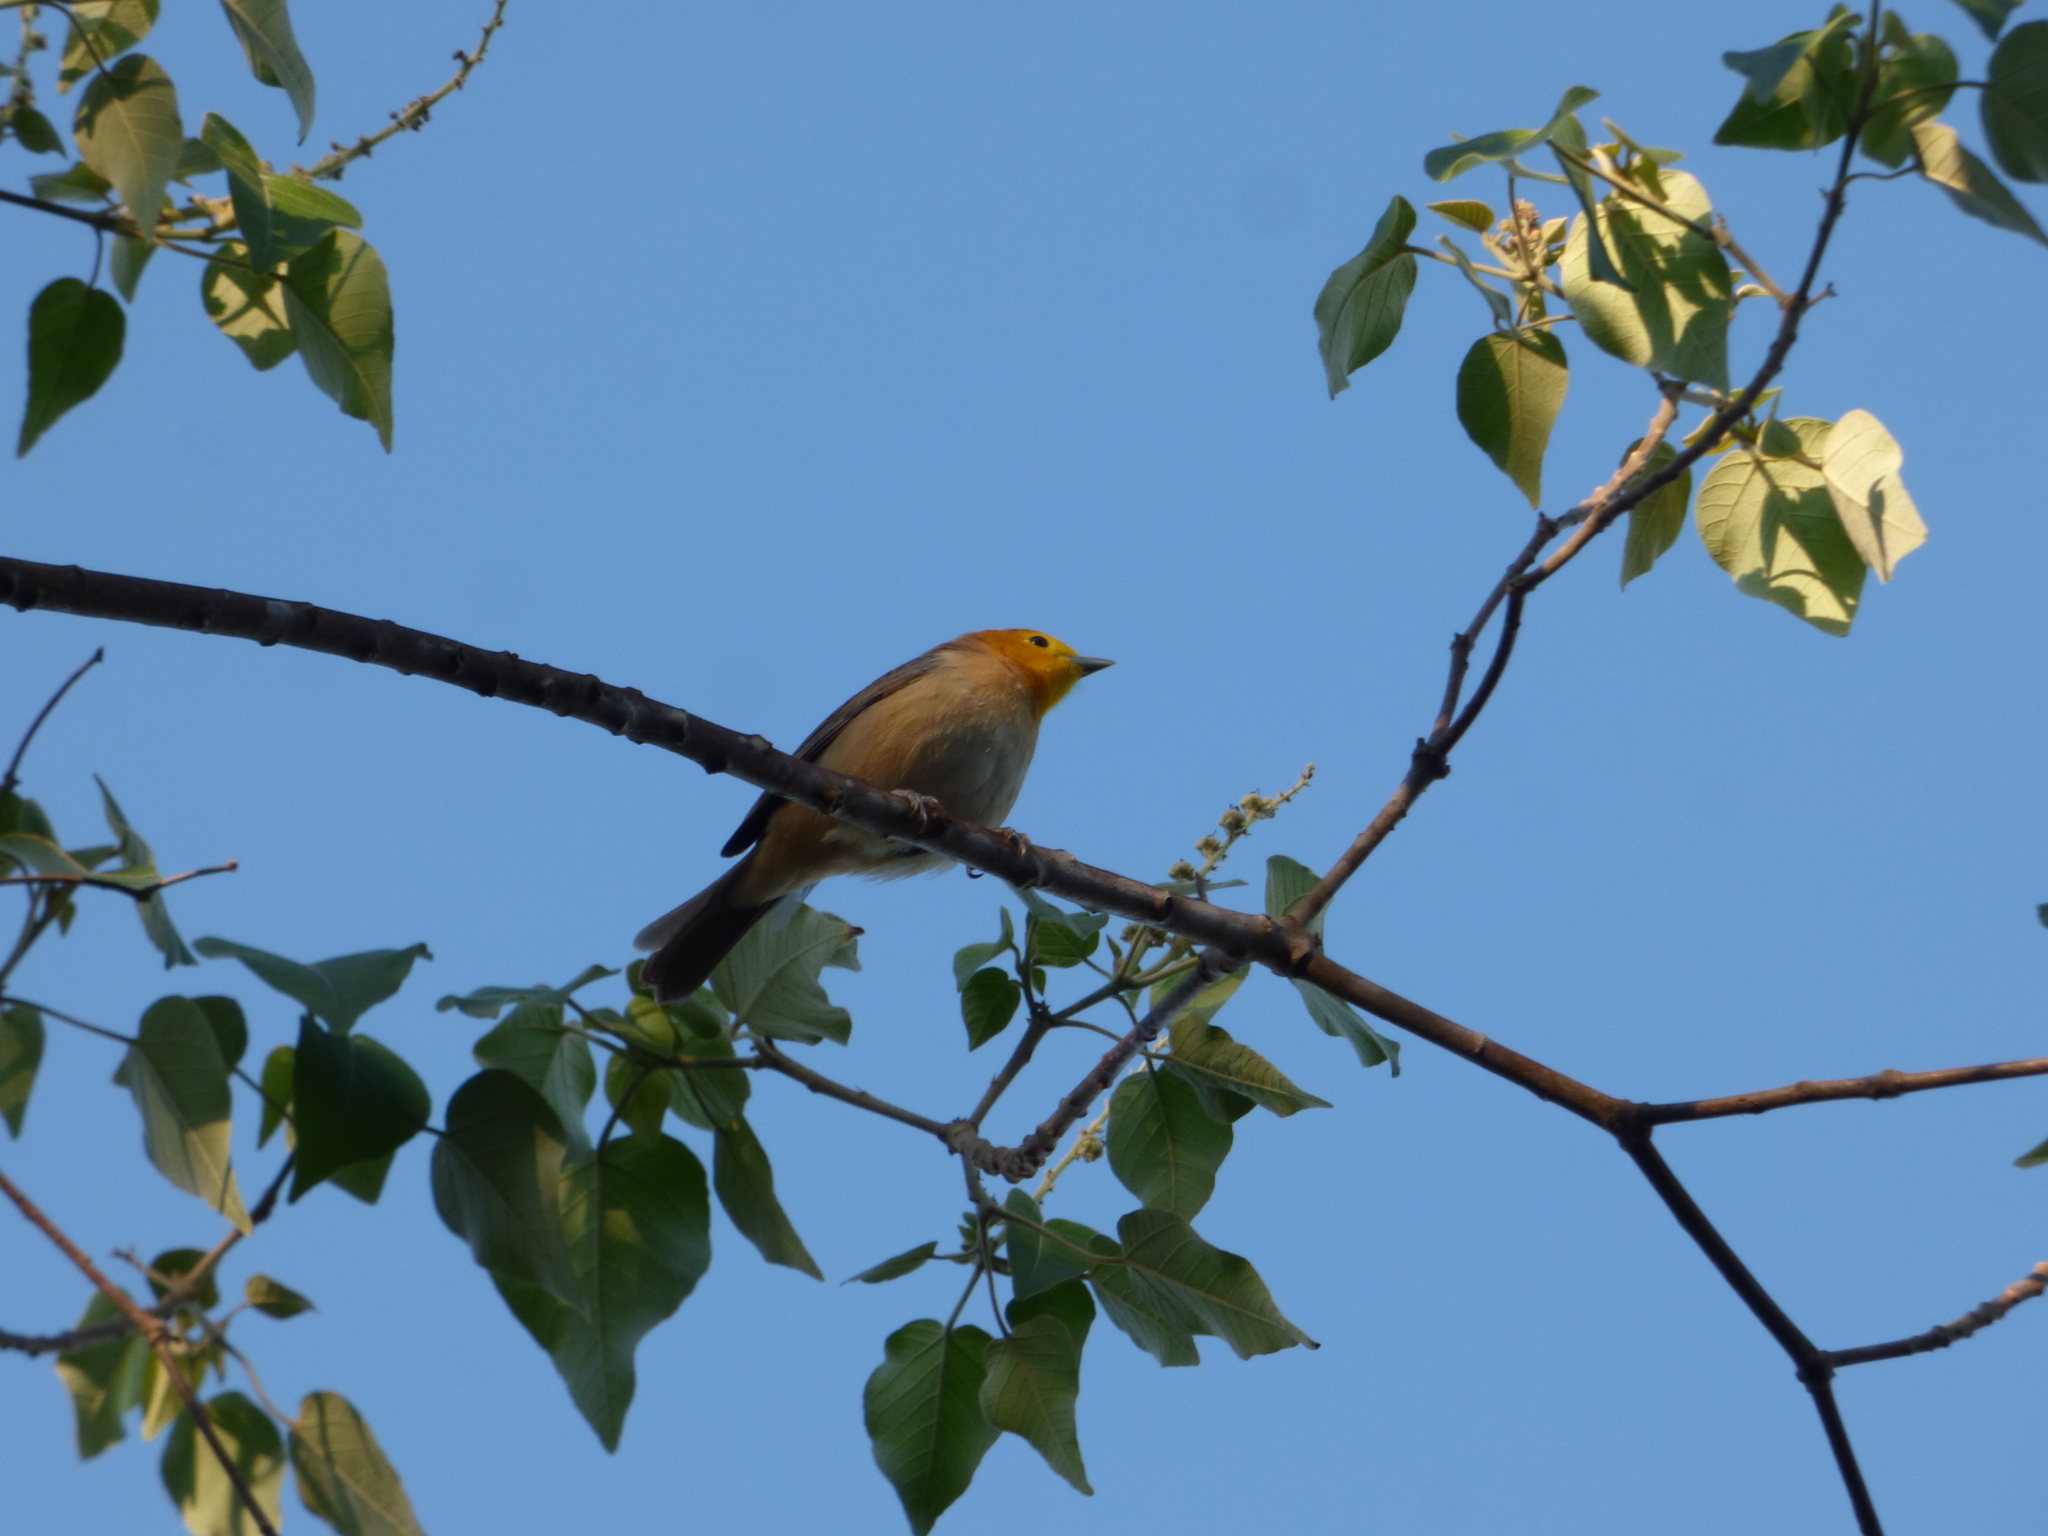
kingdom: Animalia
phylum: Chordata
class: Aves
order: Passeriformes
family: Thraupidae
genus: Thlypopsis
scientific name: Thlypopsis sordida
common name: Orange-headed tanager
